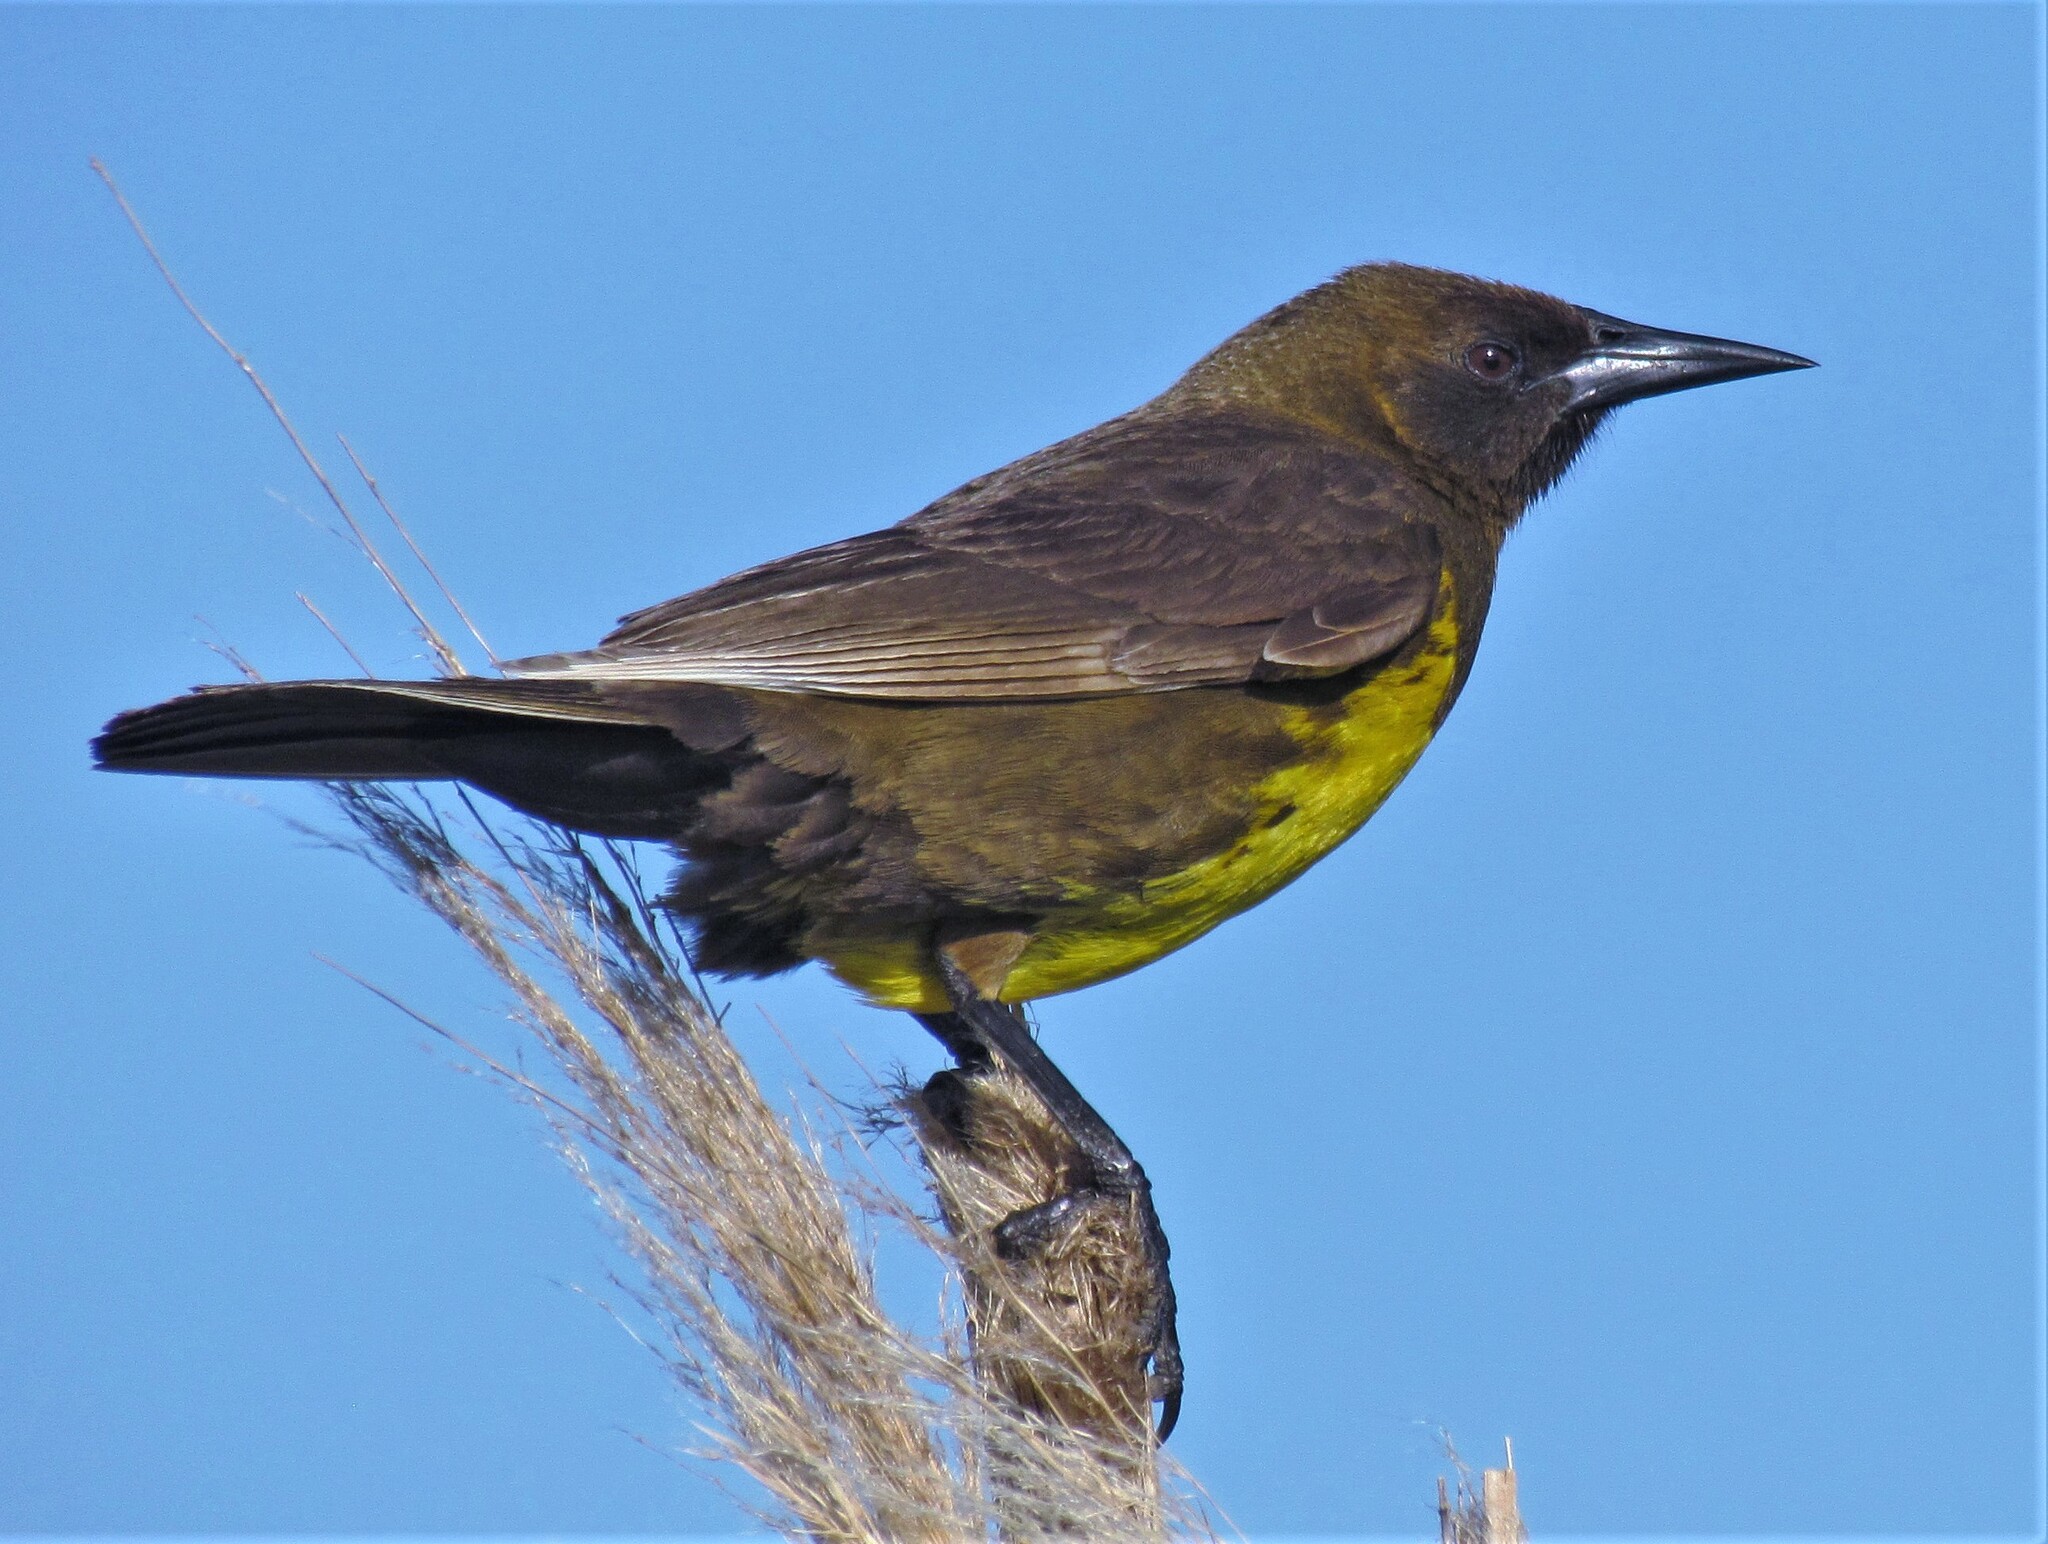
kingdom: Animalia
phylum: Chordata
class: Aves
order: Passeriformes
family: Icteridae
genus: Pseudoleistes
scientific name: Pseudoleistes virescens
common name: Brown-and-yellow marshbird
